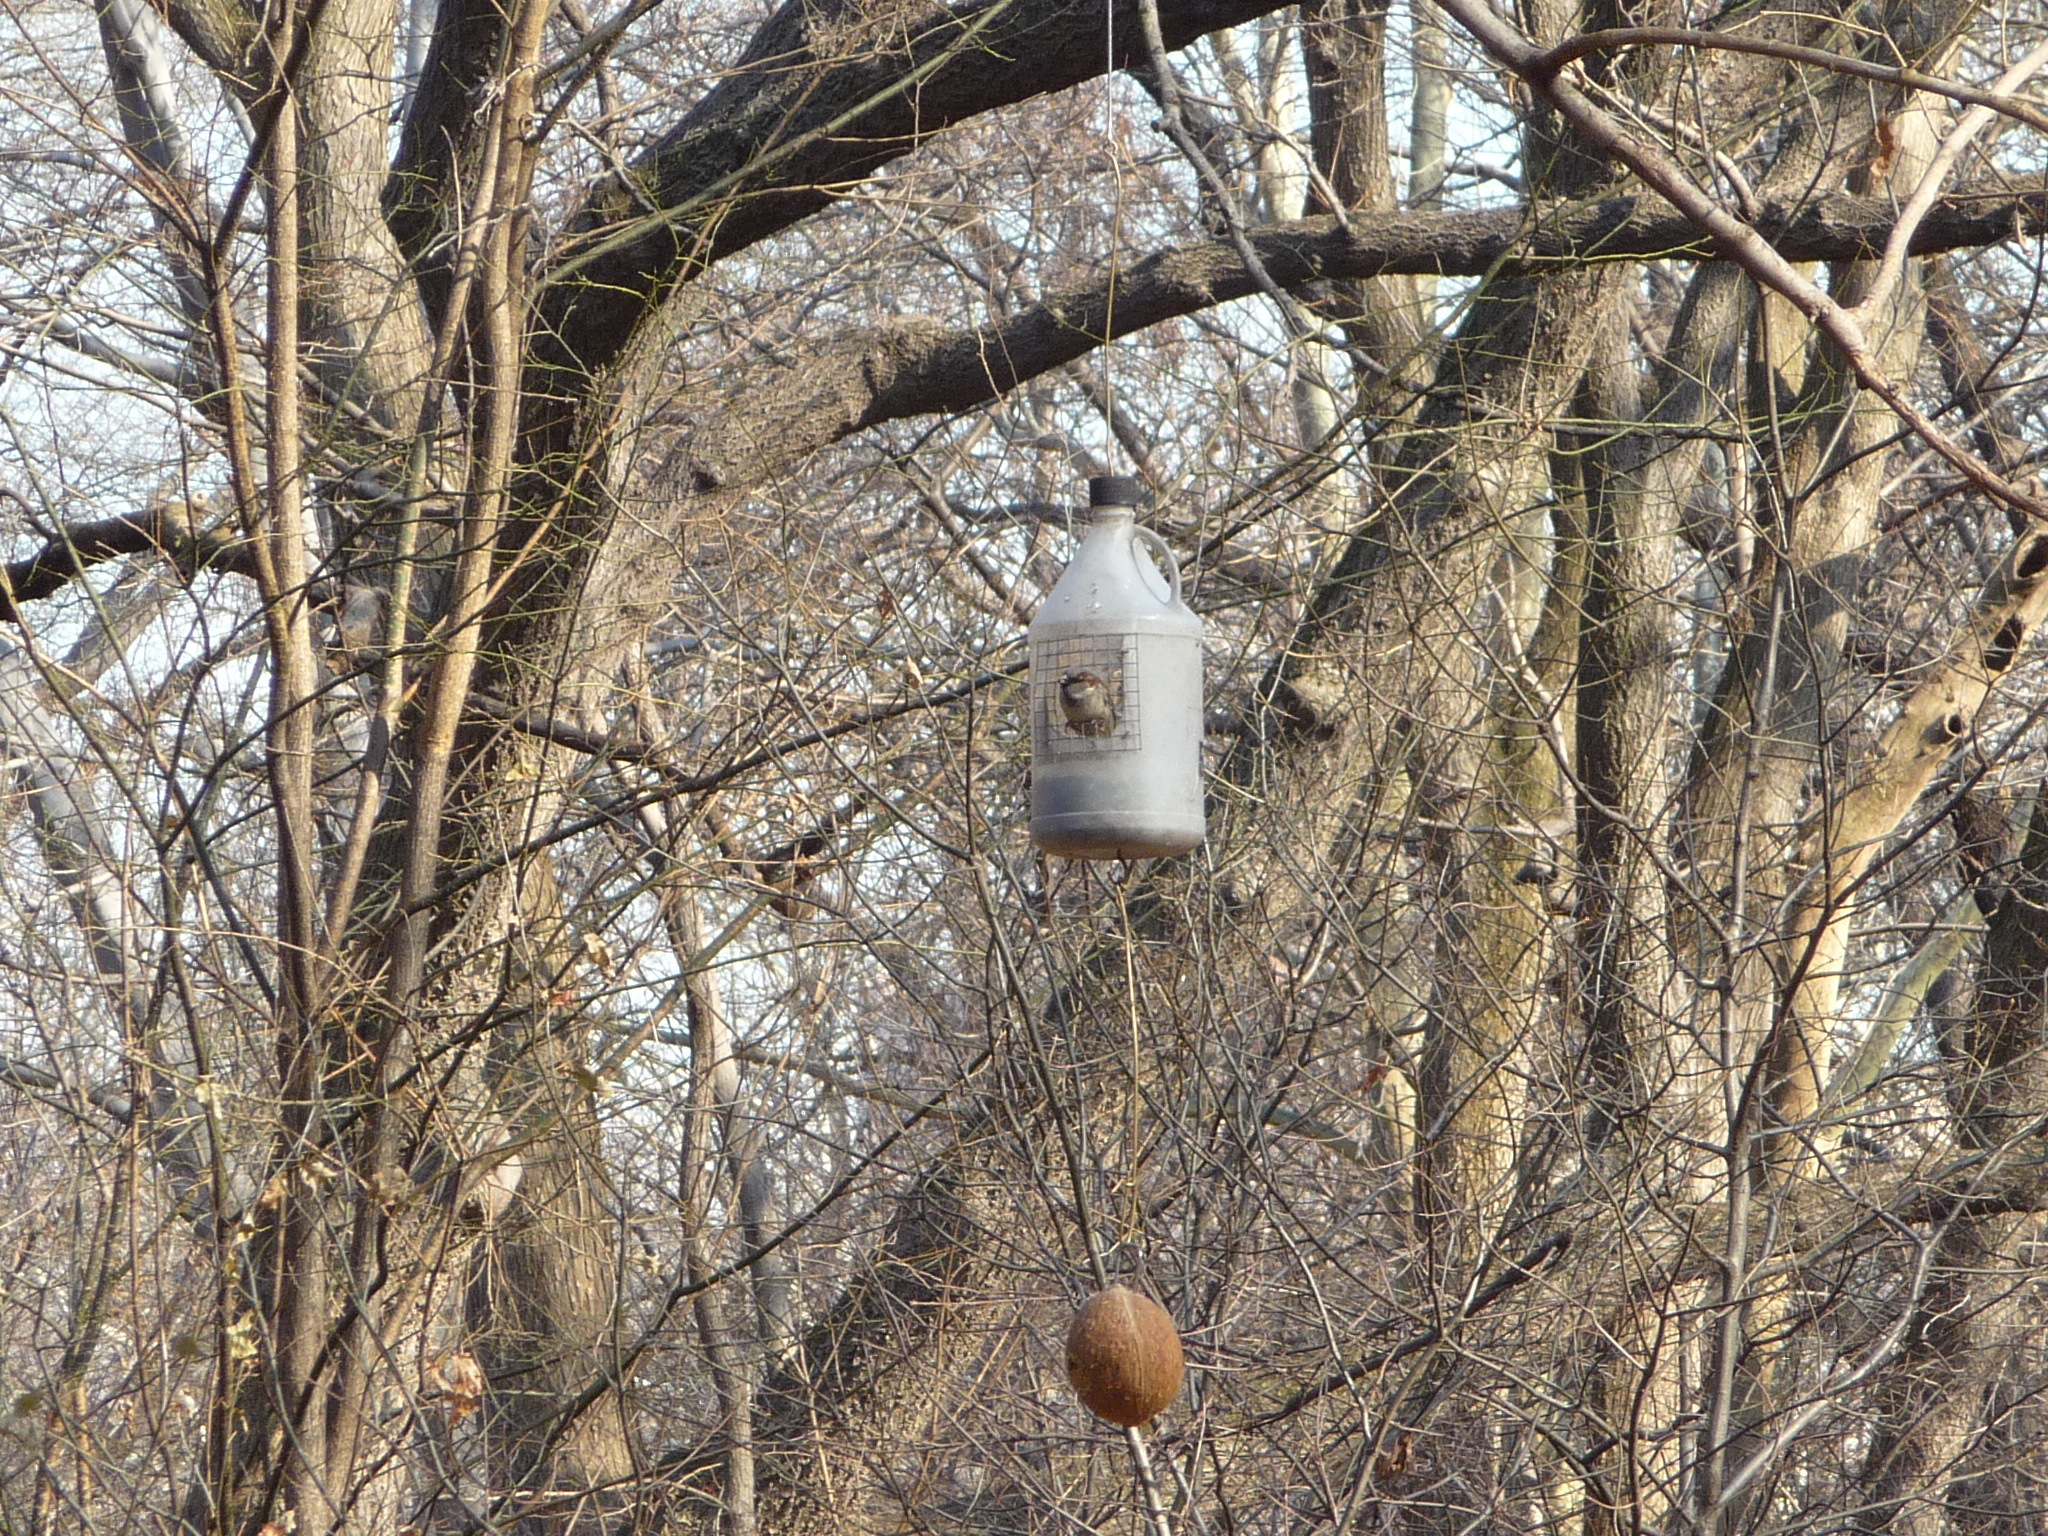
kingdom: Animalia
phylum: Chordata
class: Aves
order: Passeriformes
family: Passeridae
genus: Passer
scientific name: Passer domesticus
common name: House sparrow
